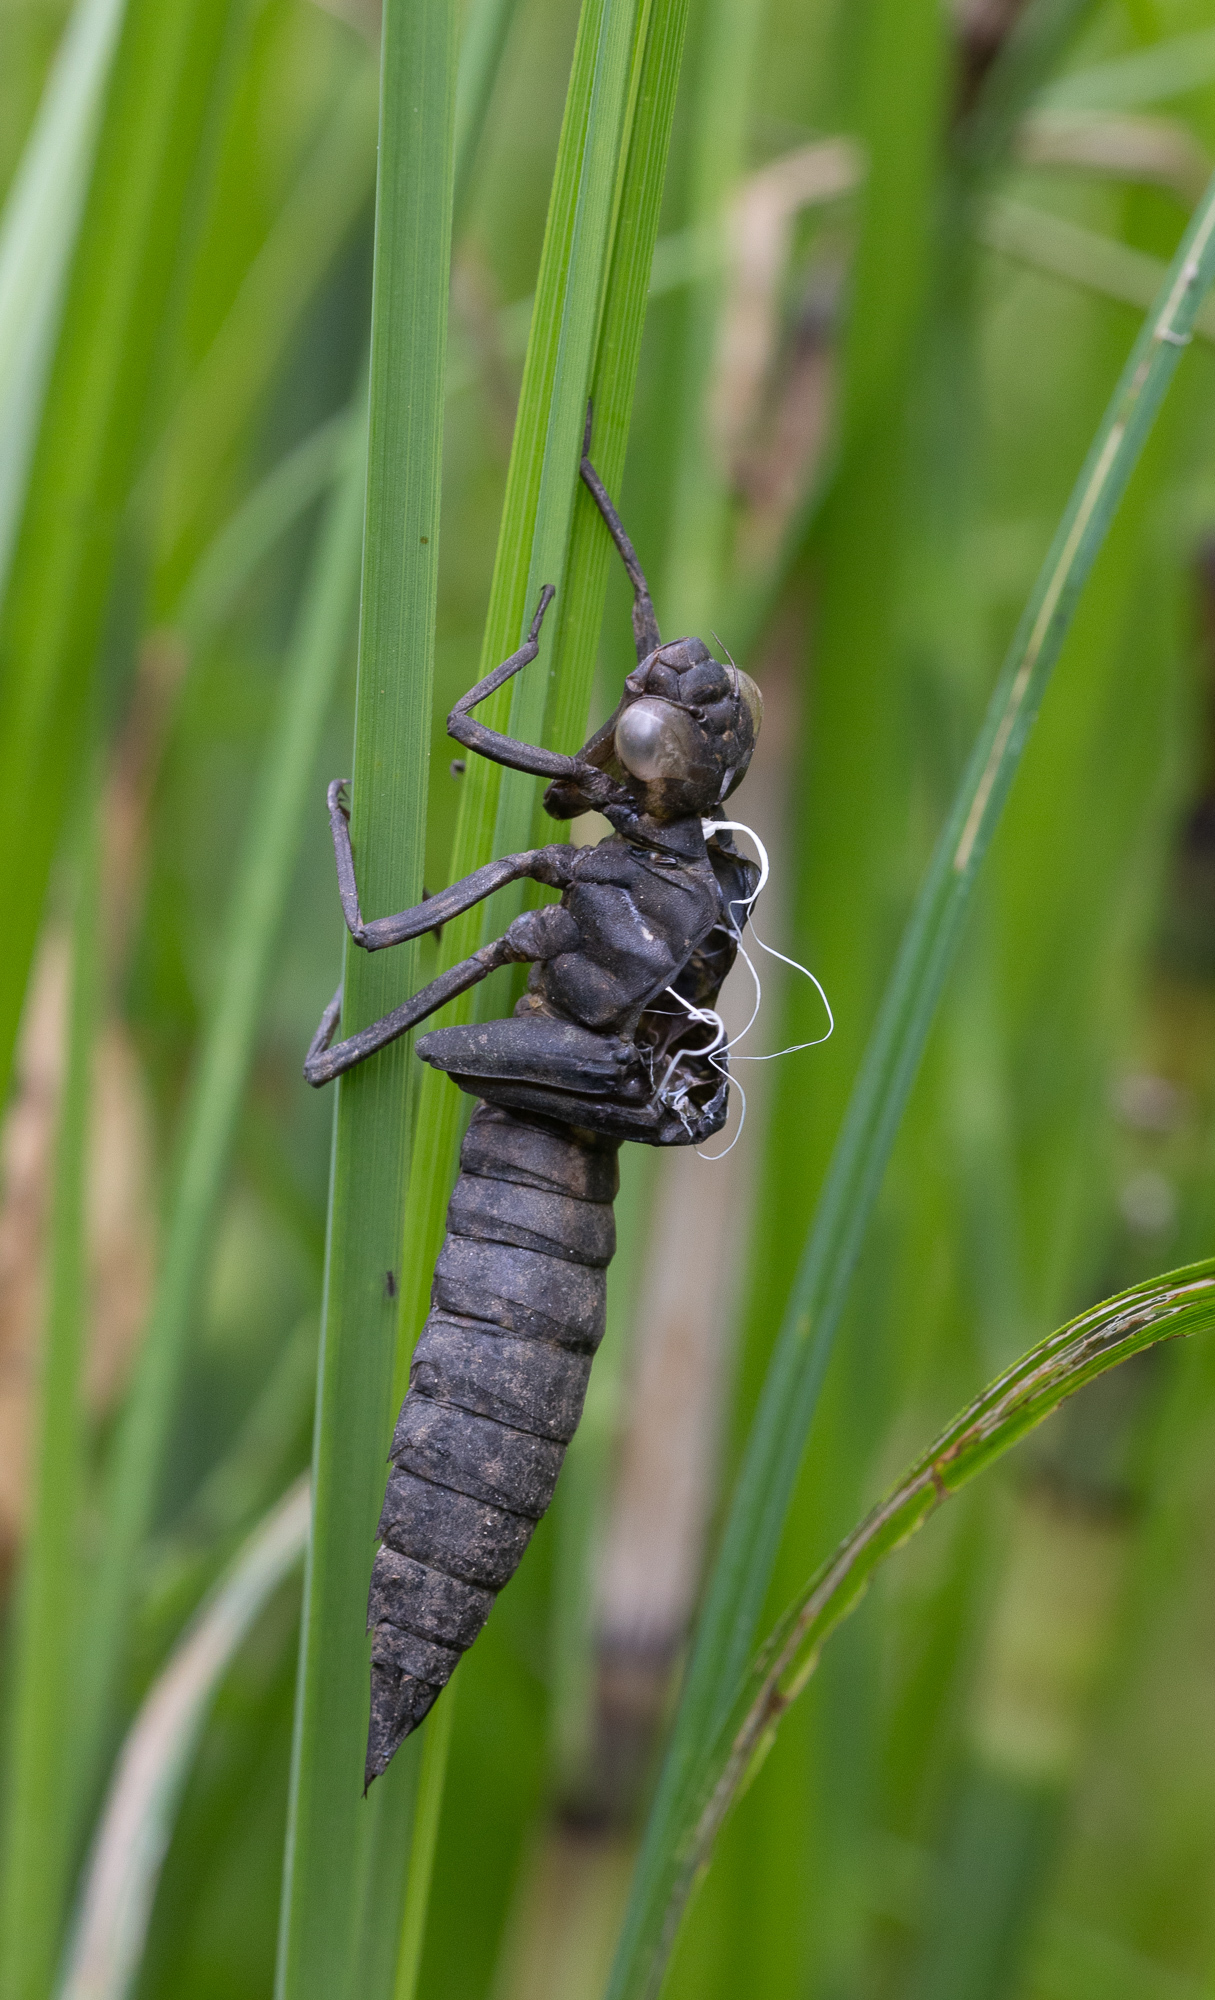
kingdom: Animalia
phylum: Arthropoda
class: Insecta
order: Odonata
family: Aeshnidae
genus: Aeshna
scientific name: Aeshna cyanea
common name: Southern hawker
